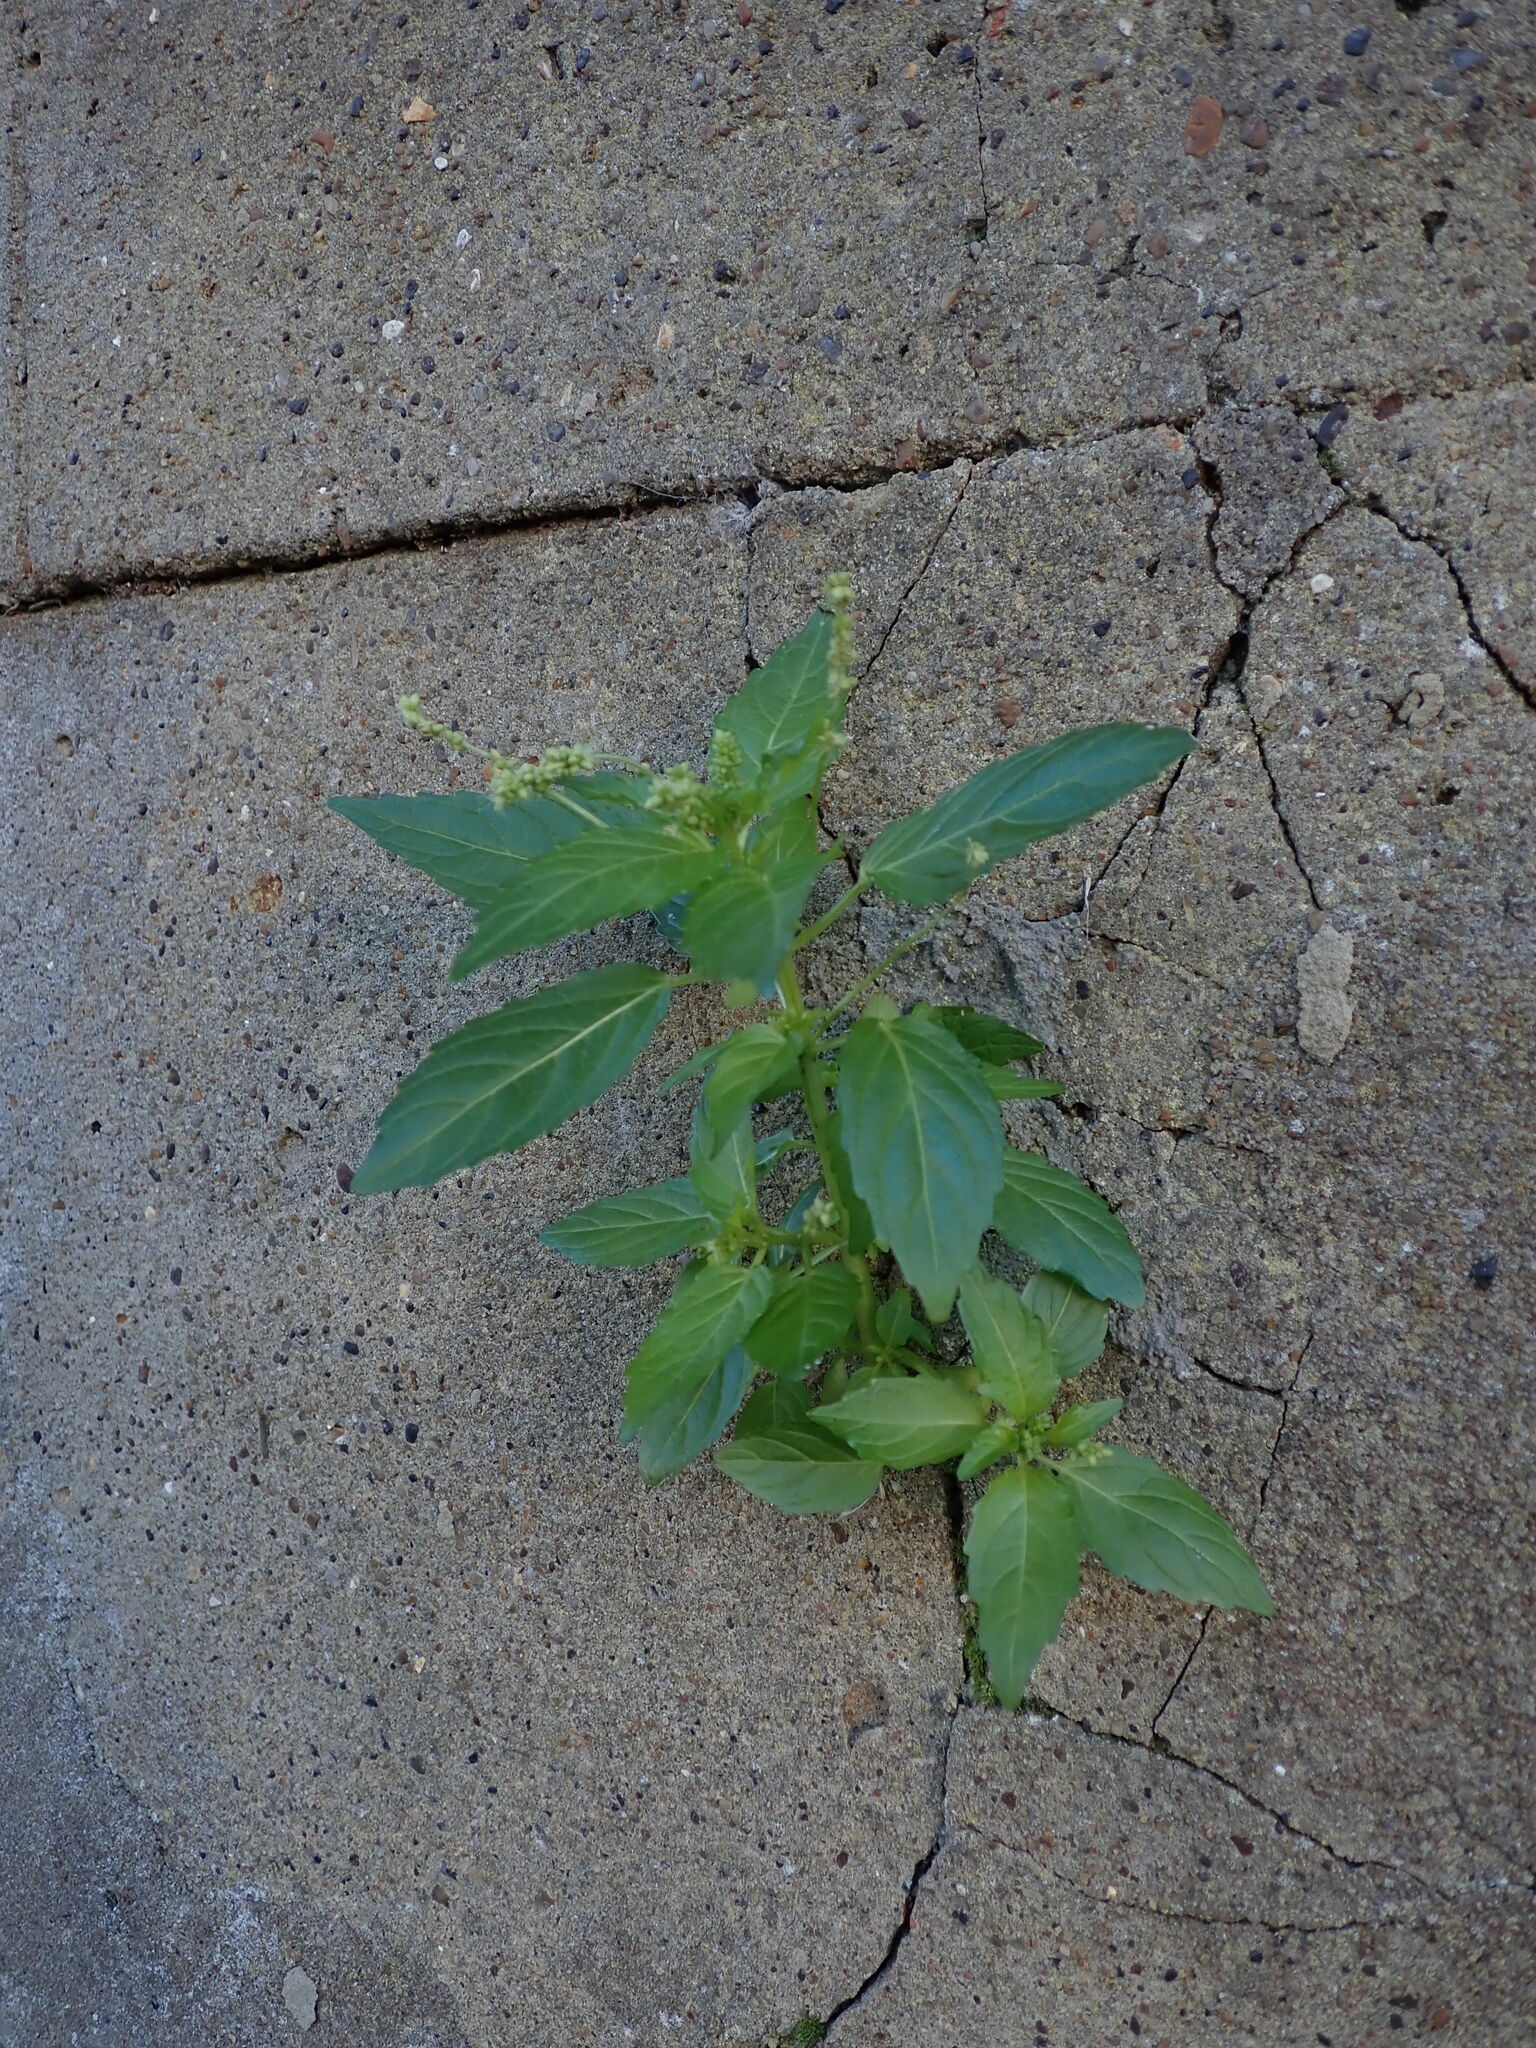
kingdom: Plantae
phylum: Tracheophyta
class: Magnoliopsida
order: Malpighiales
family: Euphorbiaceae
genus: Mercurialis
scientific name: Mercurialis annua
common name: Annual mercury
